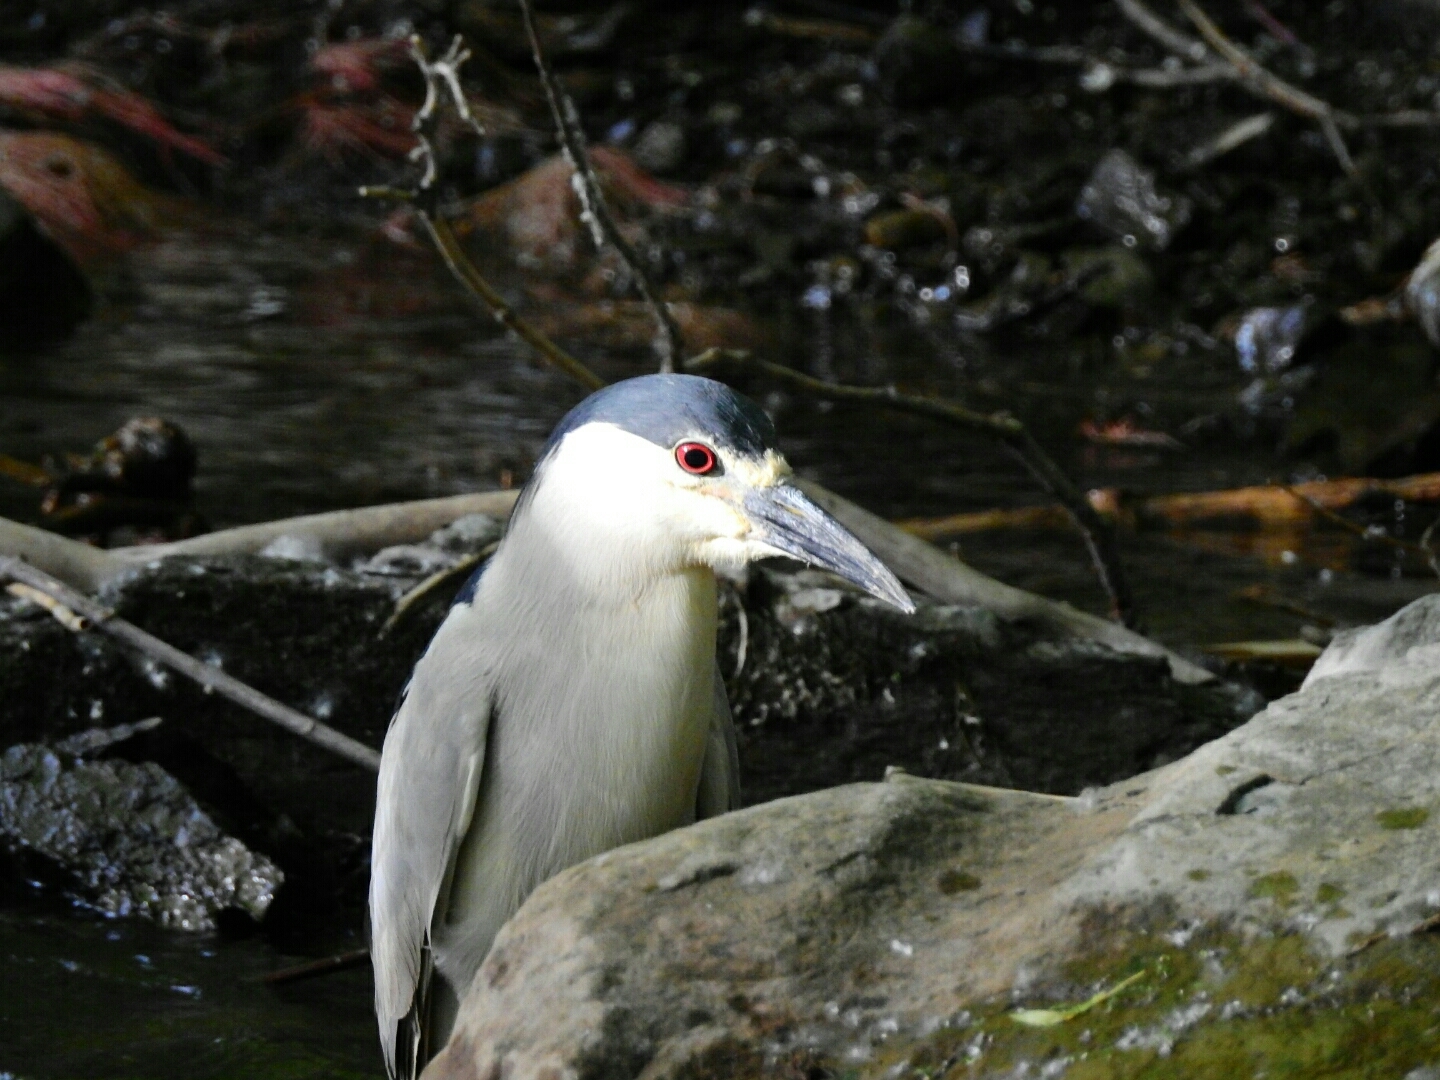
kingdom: Animalia
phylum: Chordata
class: Aves
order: Pelecaniformes
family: Ardeidae
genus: Nycticorax
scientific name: Nycticorax nycticorax
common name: Black-crowned night heron
